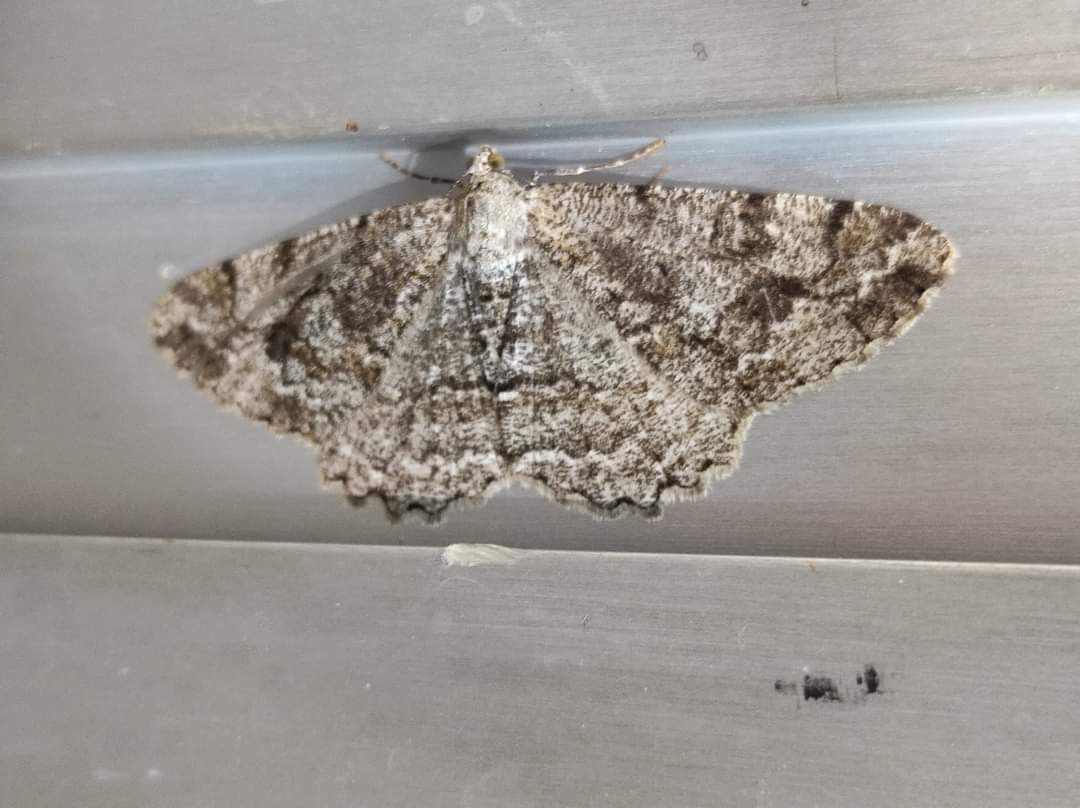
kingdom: Animalia
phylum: Arthropoda
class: Insecta
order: Lepidoptera
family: Geometridae
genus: Alcis
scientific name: Alcis repandata
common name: Mottled beauty
